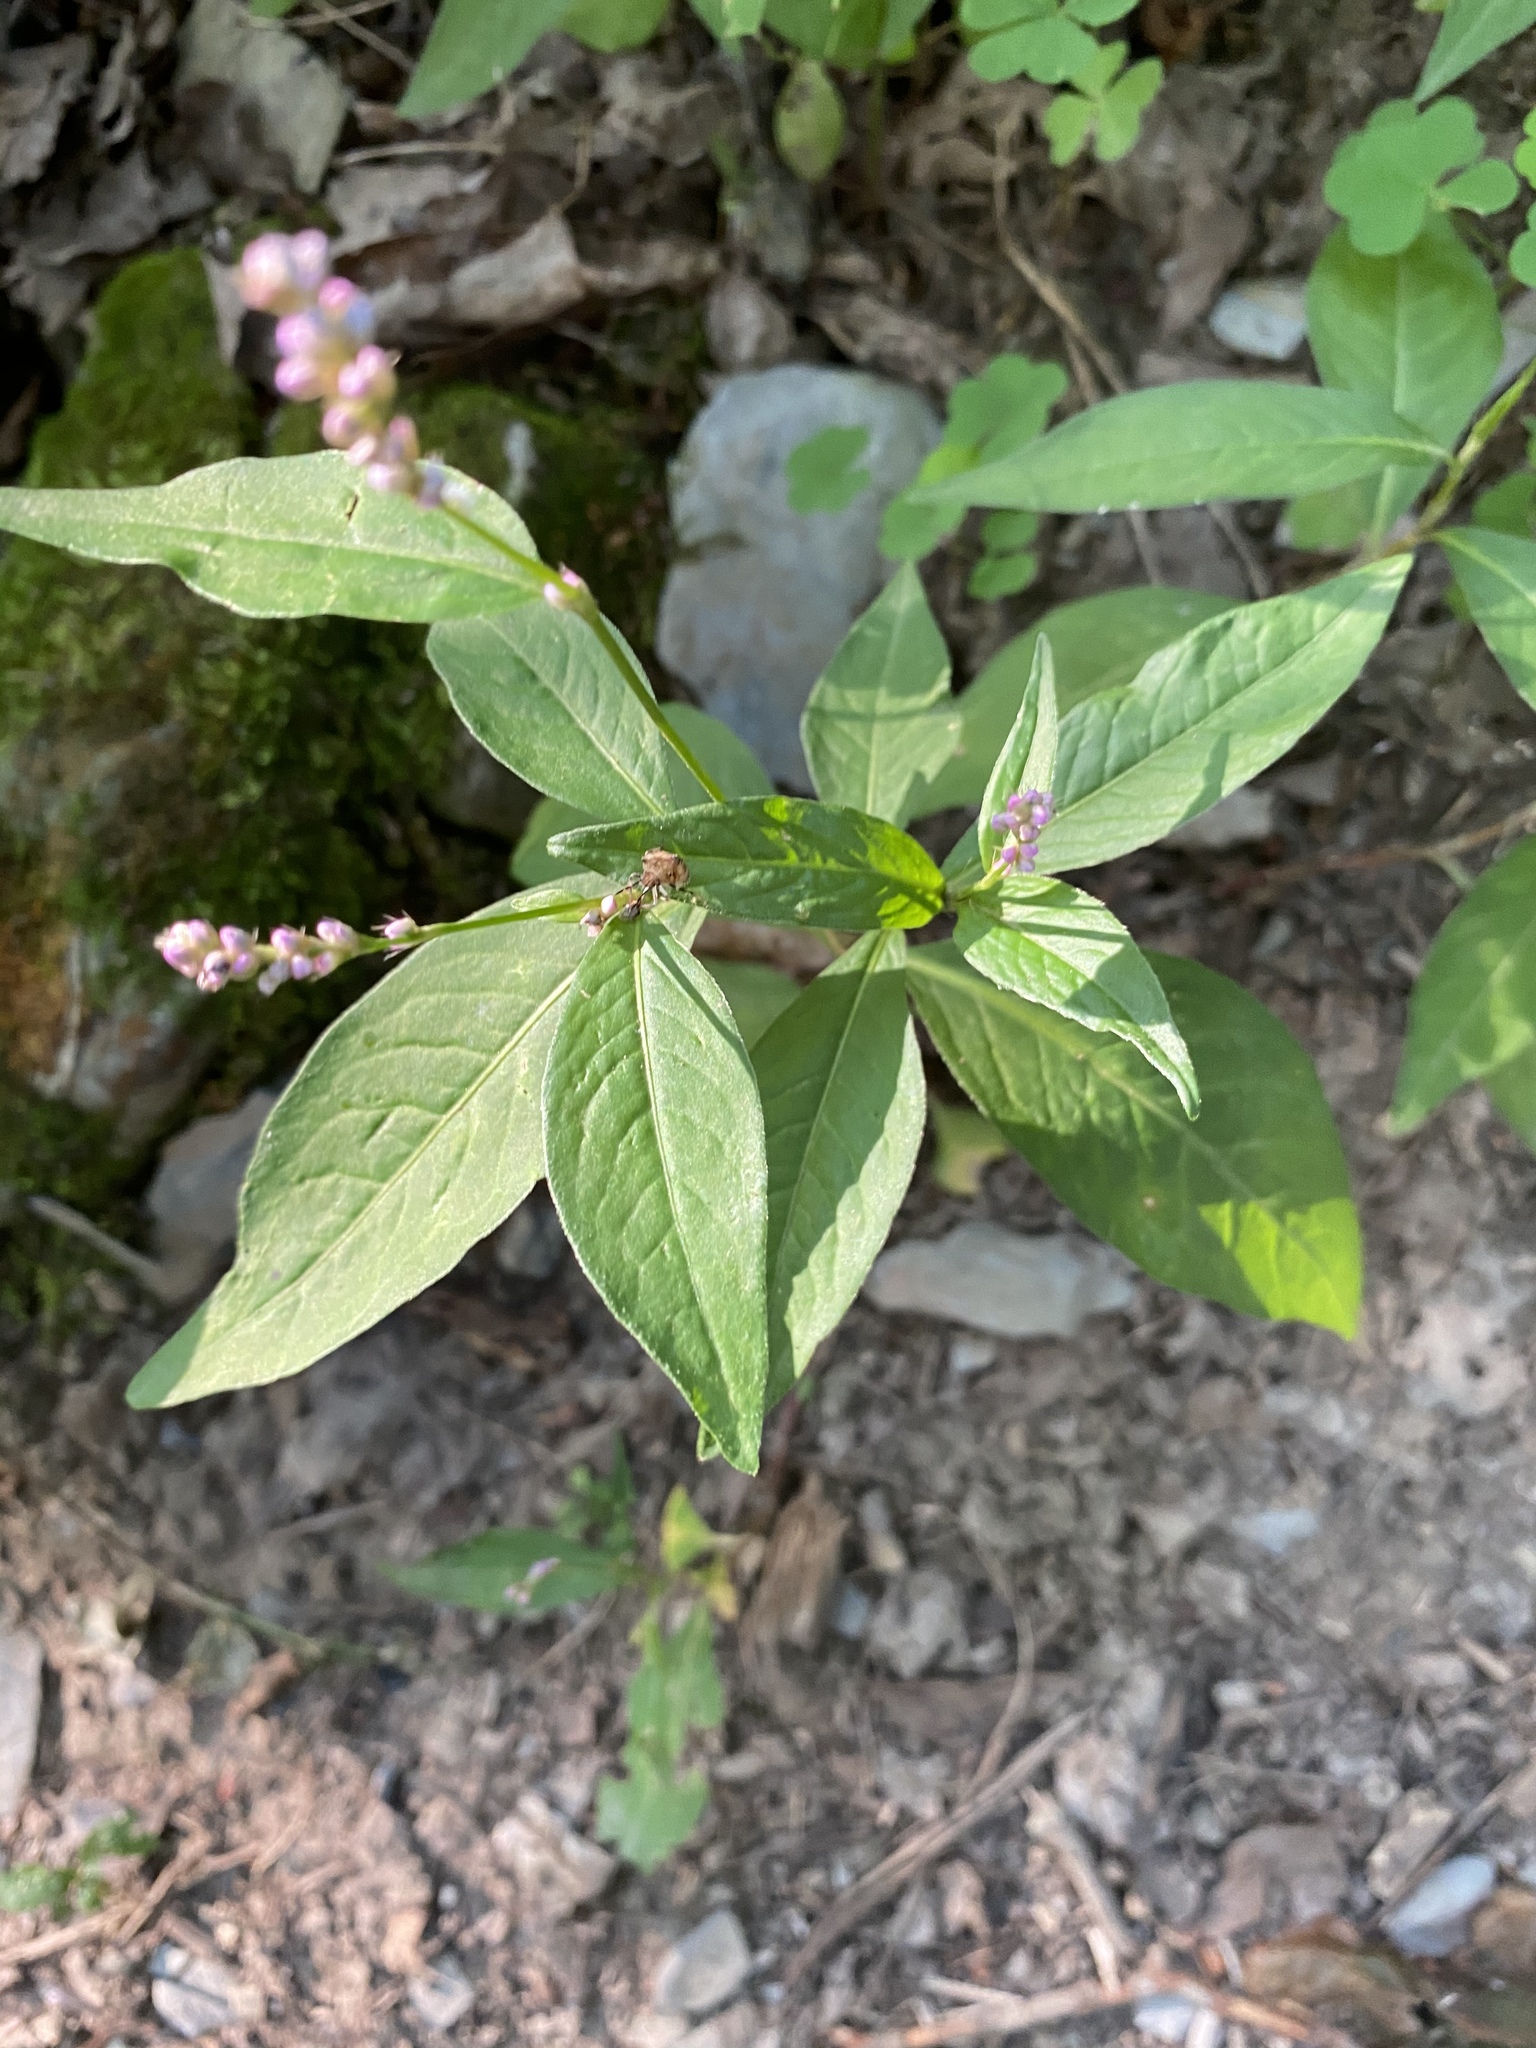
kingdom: Plantae
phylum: Tracheophyta
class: Magnoliopsida
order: Caryophyllales
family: Polygonaceae
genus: Persicaria
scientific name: Persicaria longiseta
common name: Bristly lady's-thumb
